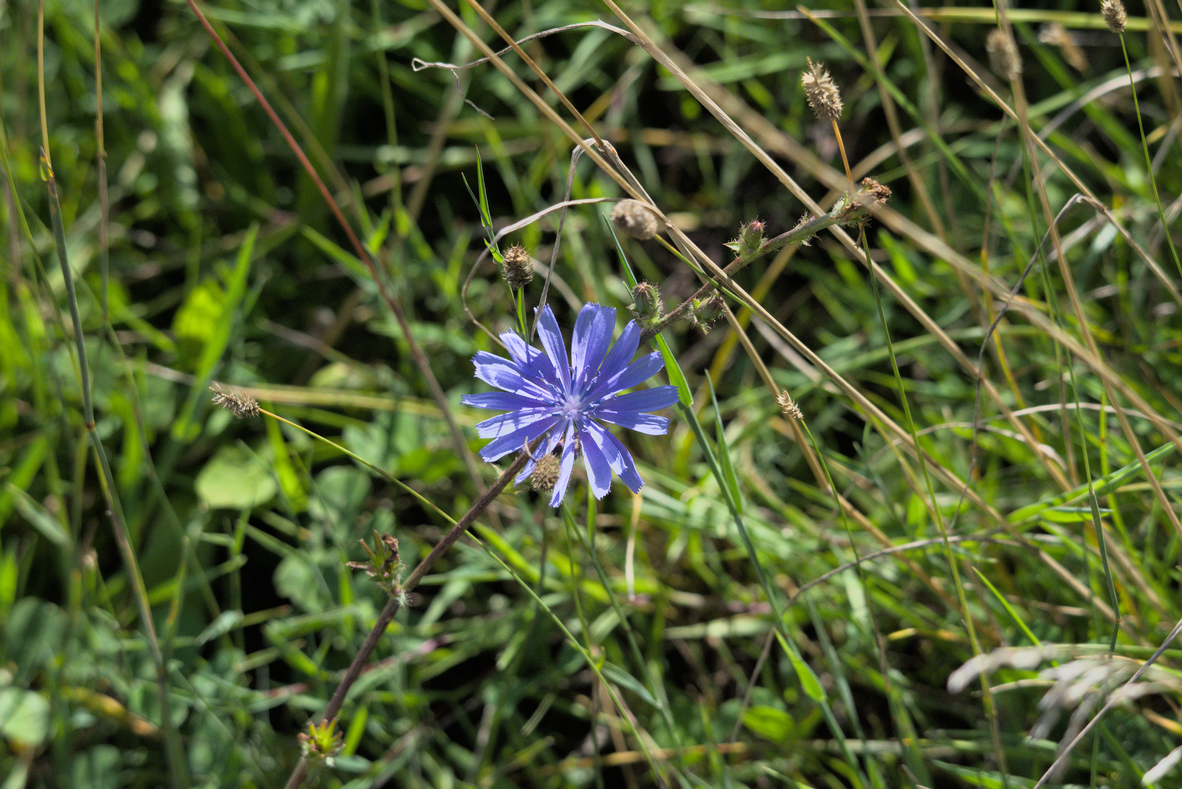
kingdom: Plantae
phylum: Tracheophyta
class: Magnoliopsida
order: Asterales
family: Asteraceae
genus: Cichorium
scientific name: Cichorium intybus
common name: Chicory
